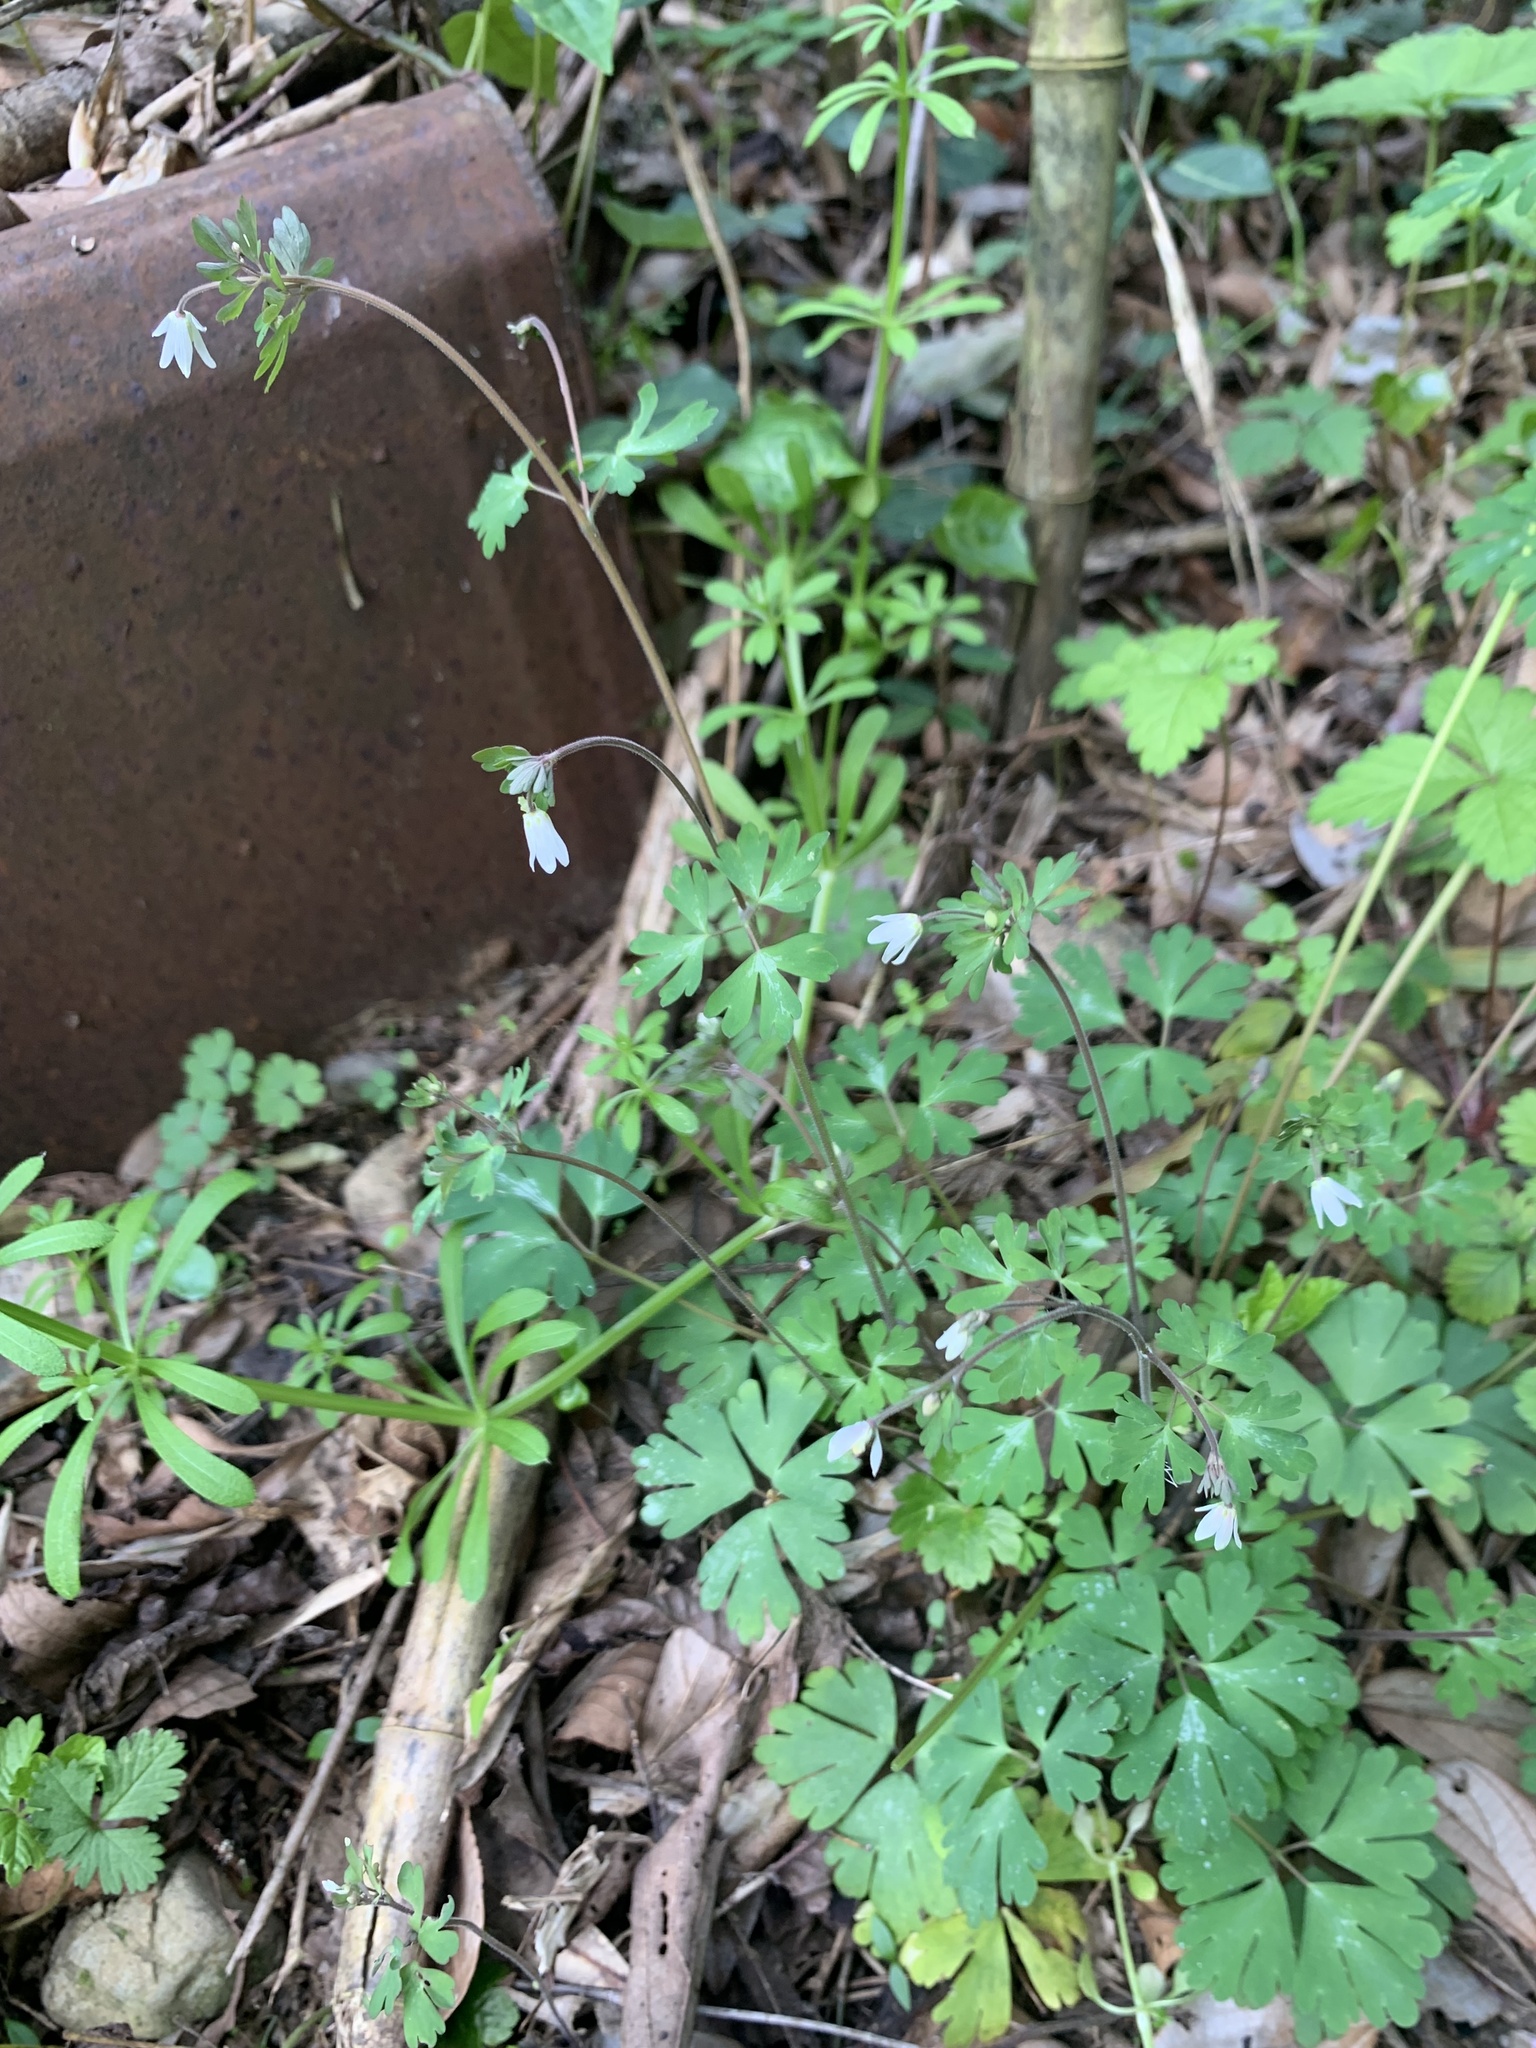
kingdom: Plantae
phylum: Tracheophyta
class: Magnoliopsida
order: Ranunculales
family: Ranunculaceae
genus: Semiaquilegia
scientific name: Semiaquilegia adoxoides
